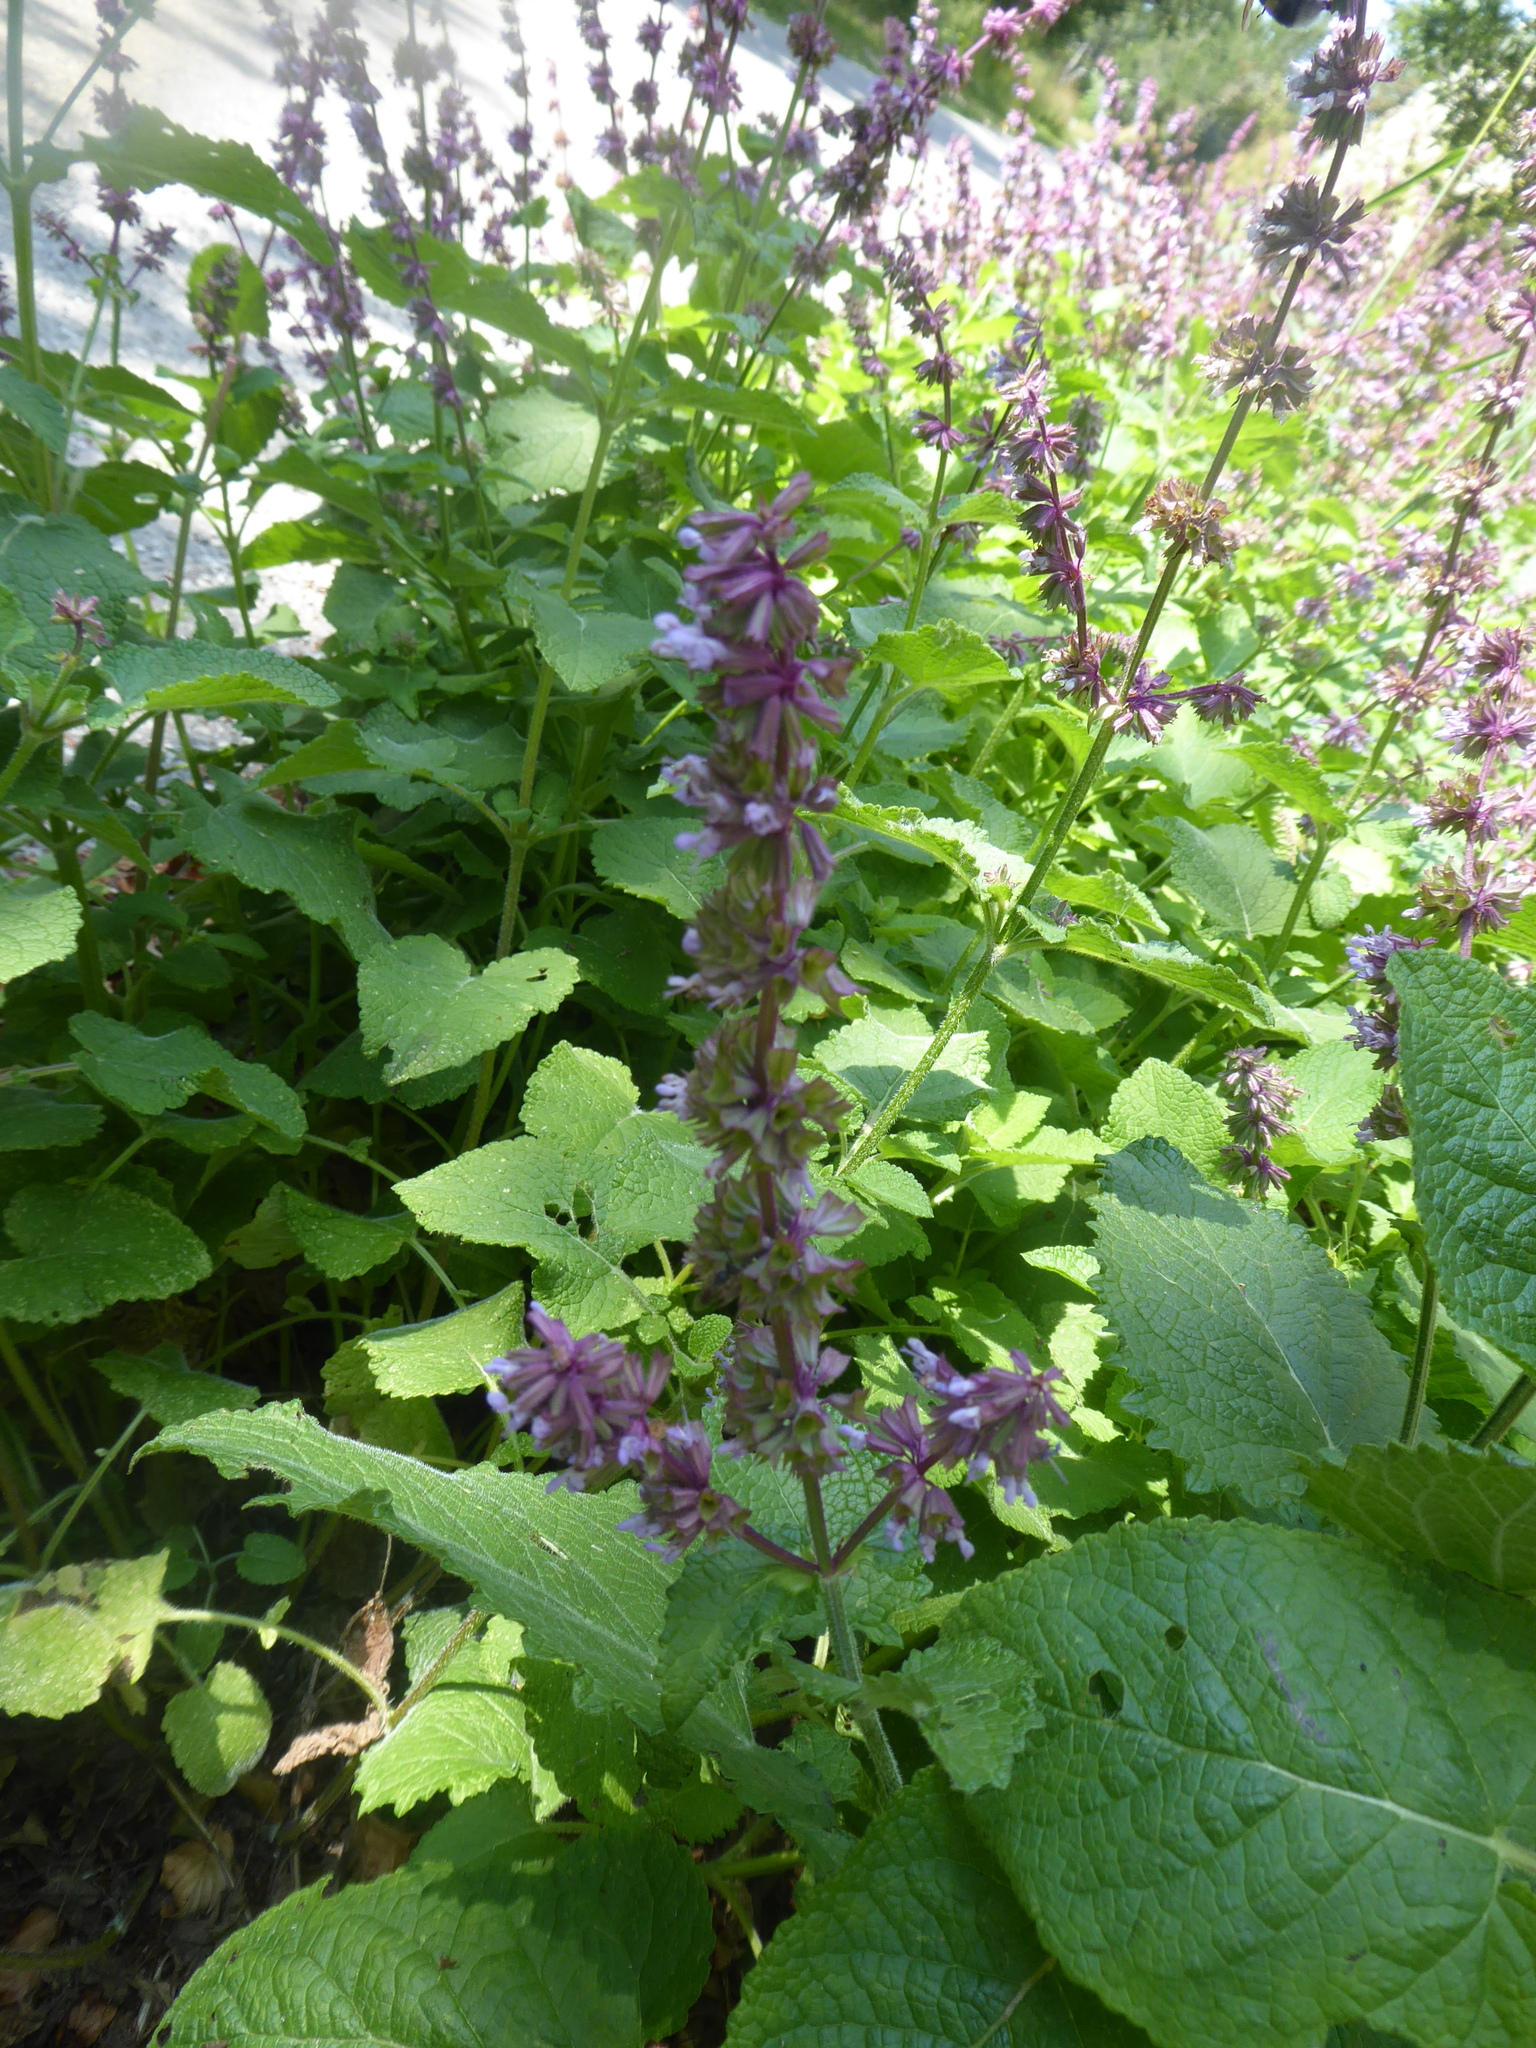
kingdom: Plantae
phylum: Tracheophyta
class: Magnoliopsida
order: Lamiales
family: Lamiaceae
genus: Salvia
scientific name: Salvia verticillata
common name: Whorled clary
